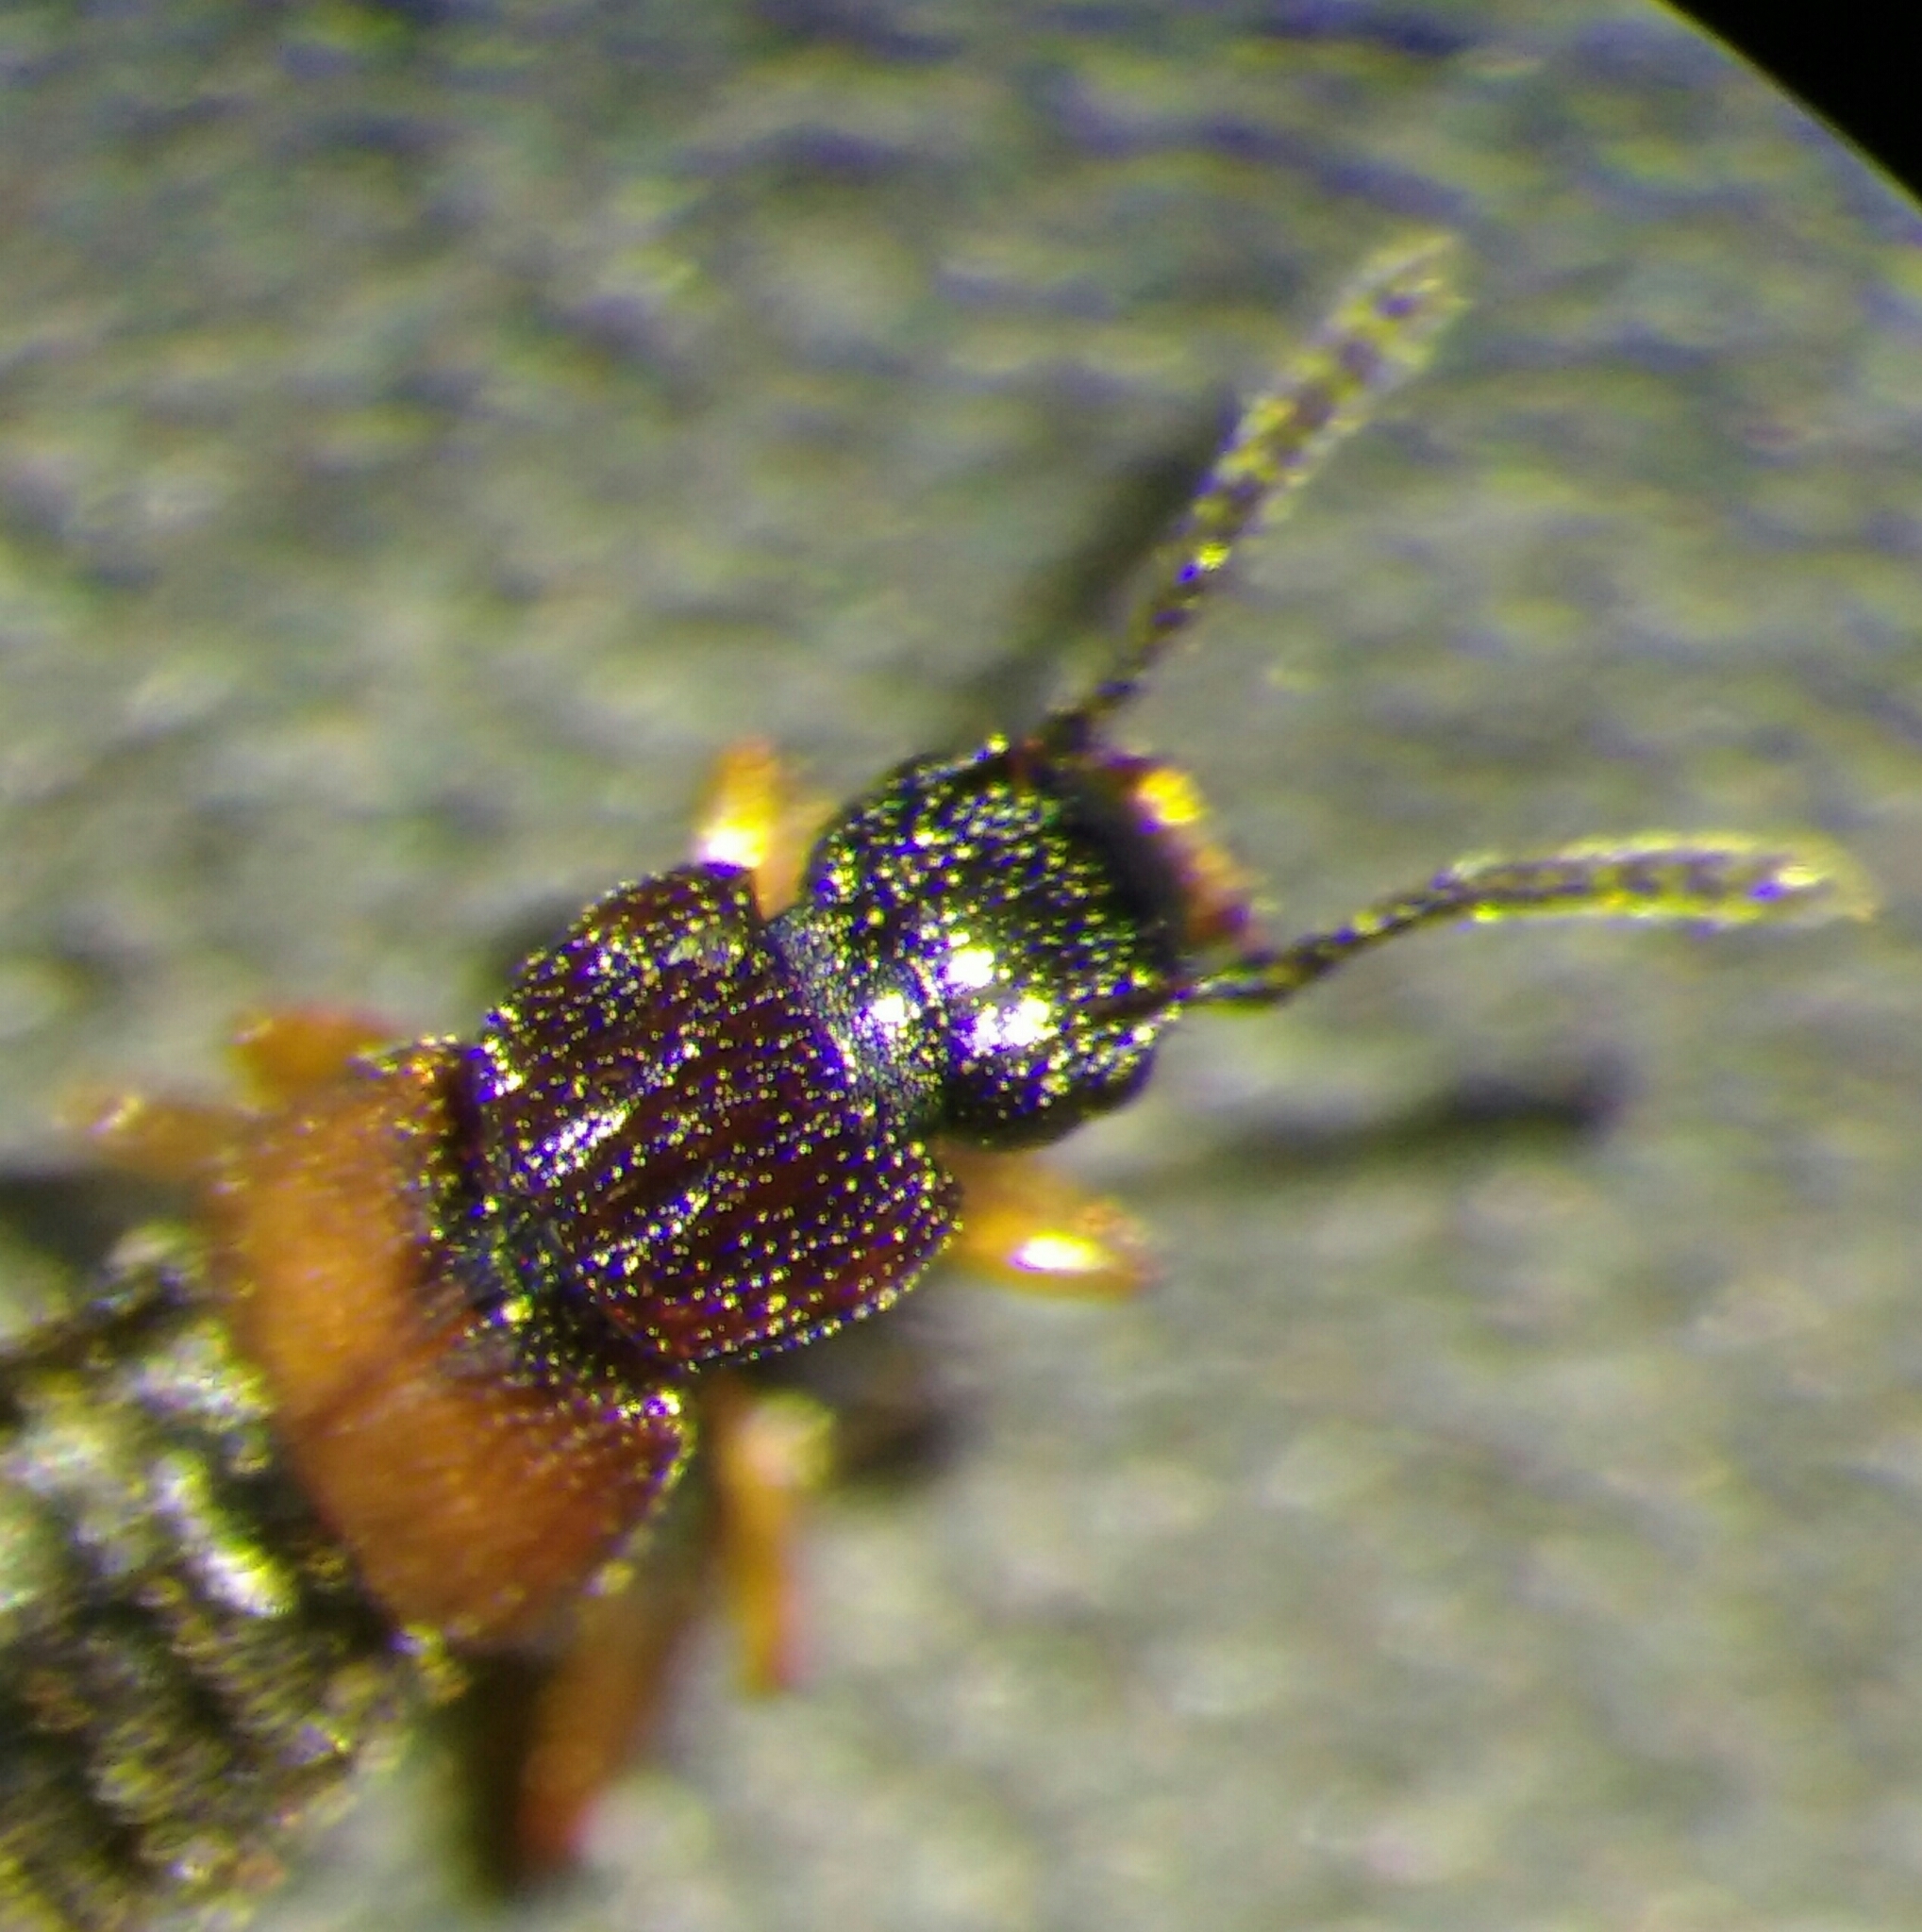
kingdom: Animalia
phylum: Arthropoda
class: Insecta
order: Coleoptera
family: Staphylinidae
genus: Anotylus
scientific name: Anotylus insecatus
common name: Rove beetle
